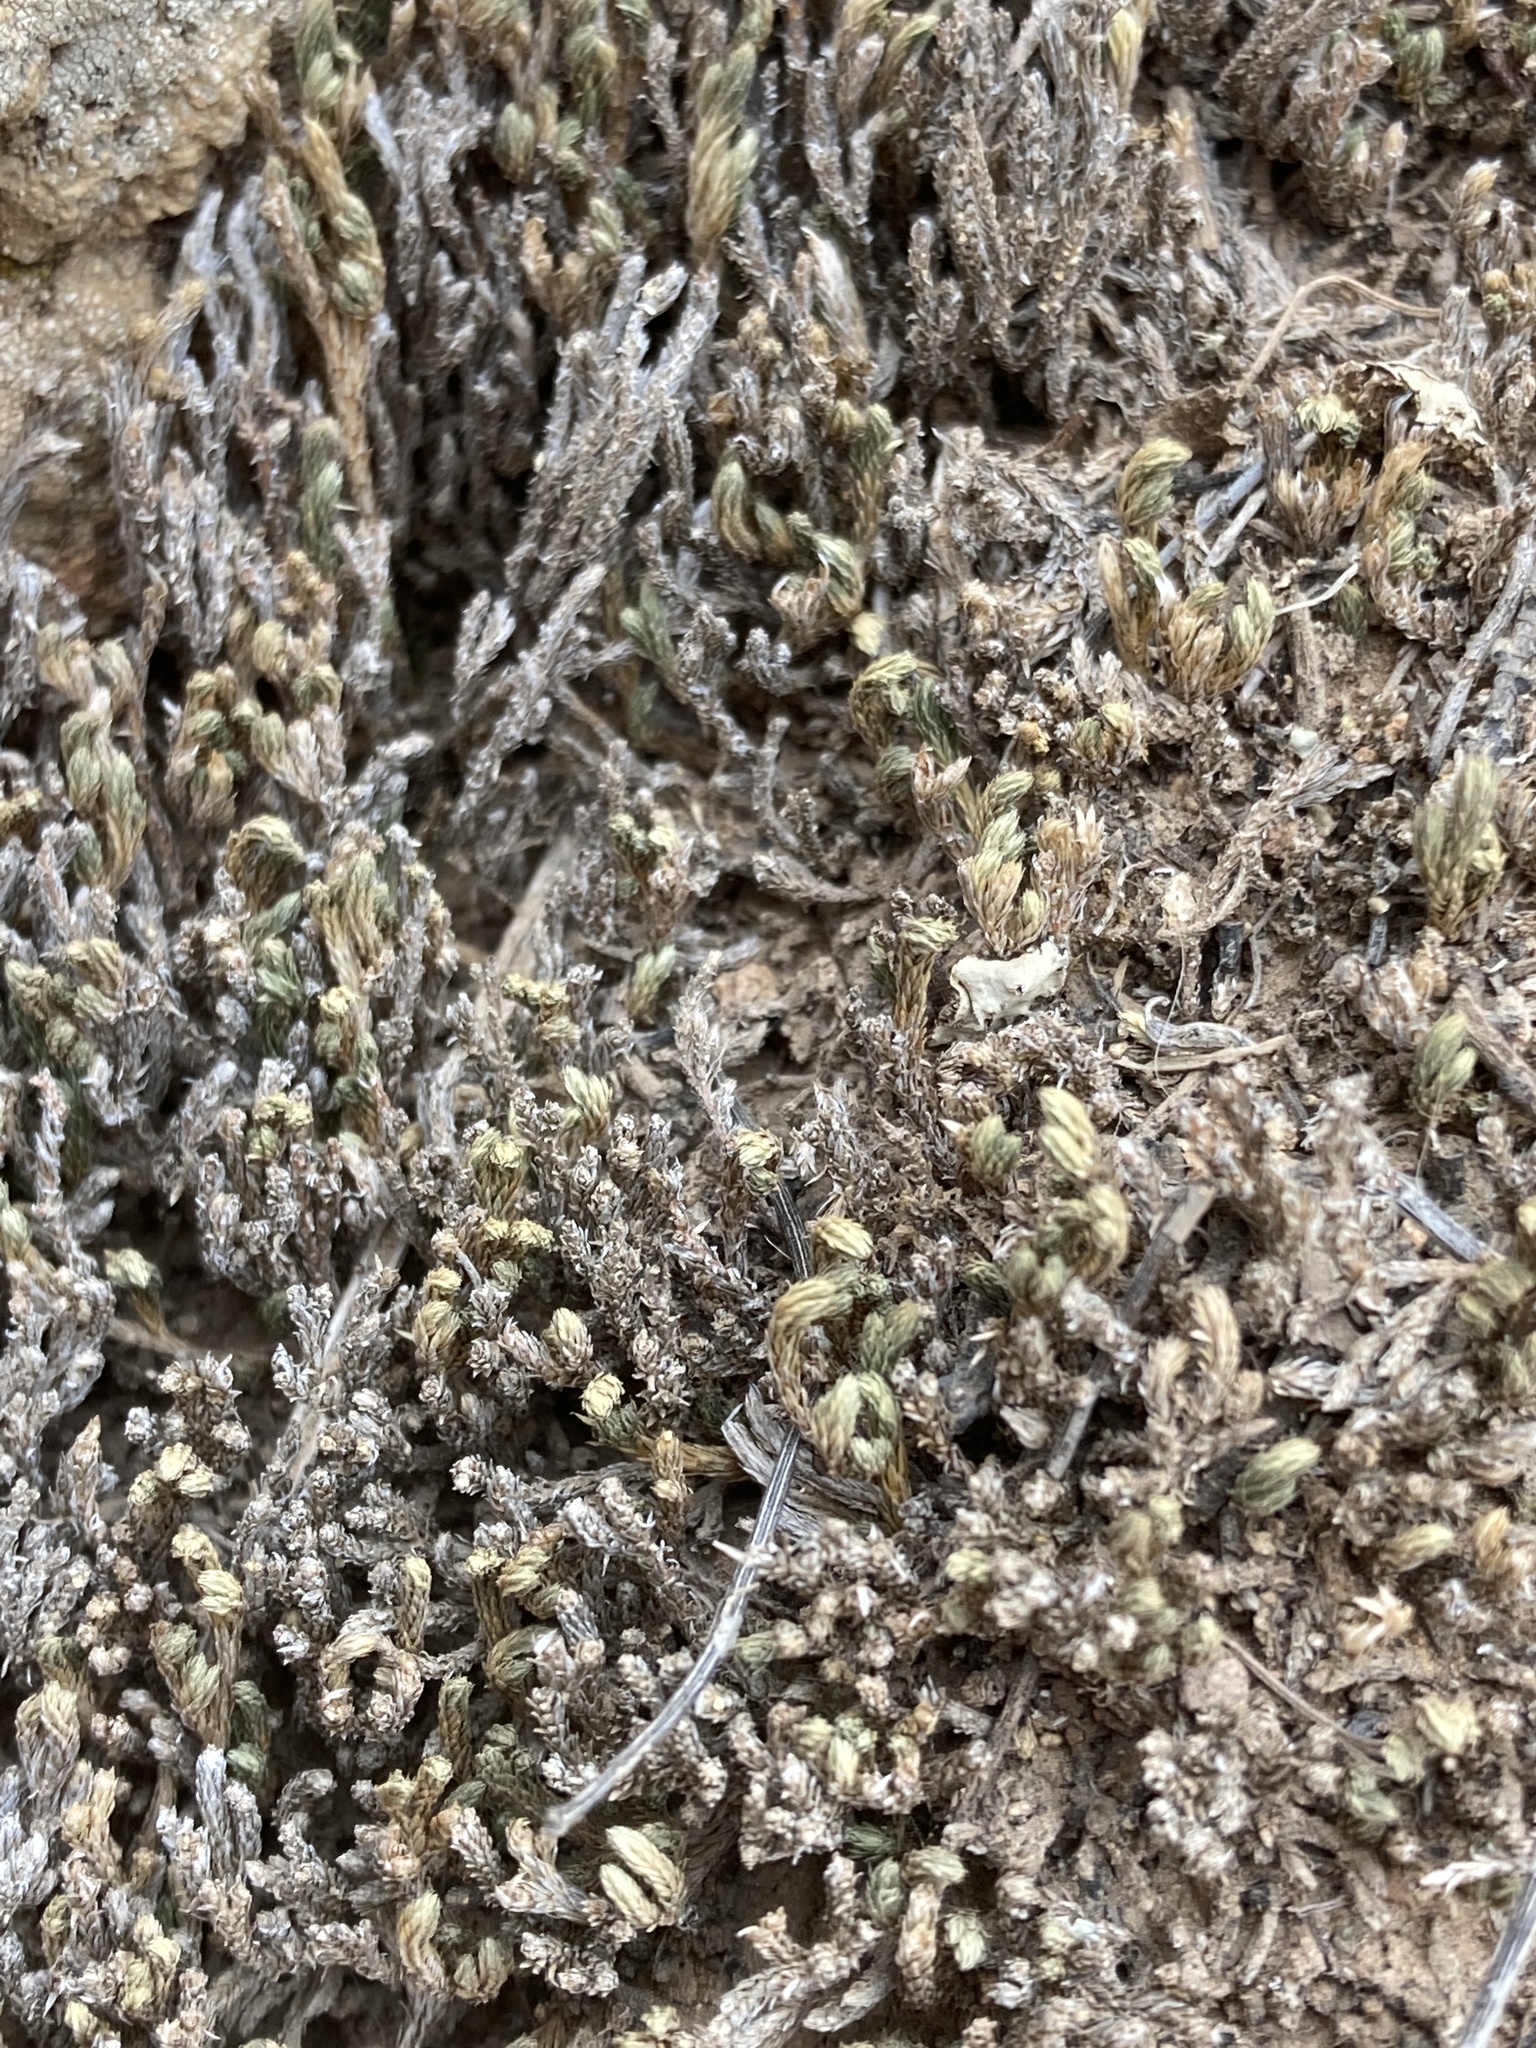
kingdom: Plantae
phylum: Tracheophyta
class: Lycopodiopsida
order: Selaginellales
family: Selaginellaceae
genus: Selaginella
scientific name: Selaginella bigelovii
